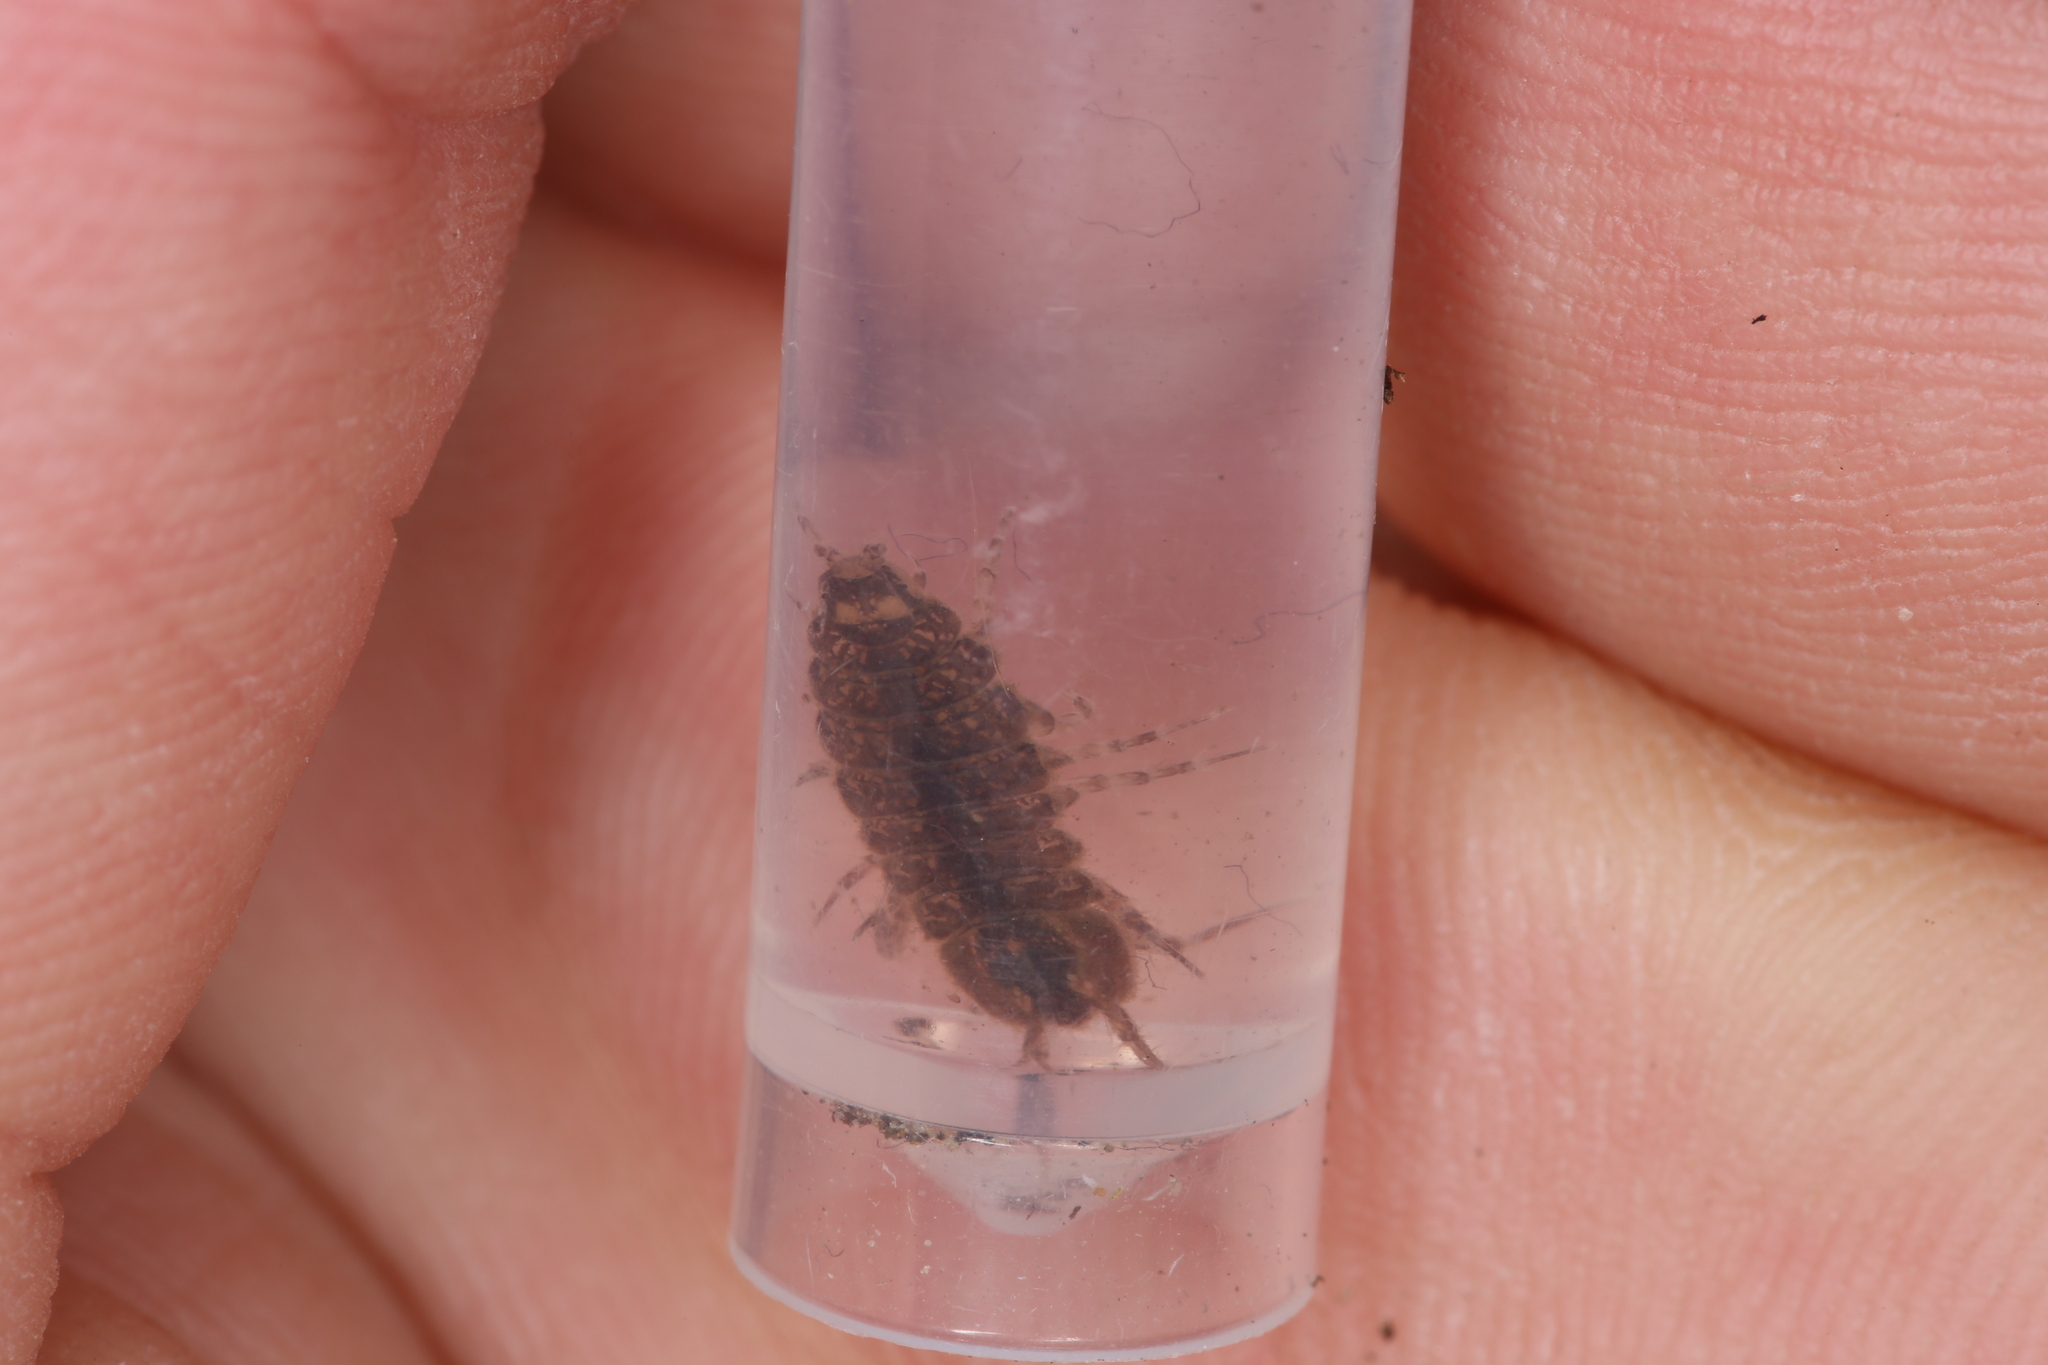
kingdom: Animalia
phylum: Arthropoda
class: Malacostraca
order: Isopoda
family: Asellidae
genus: Asellus
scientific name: Asellus aquaticus
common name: Water hog lice/slaters
